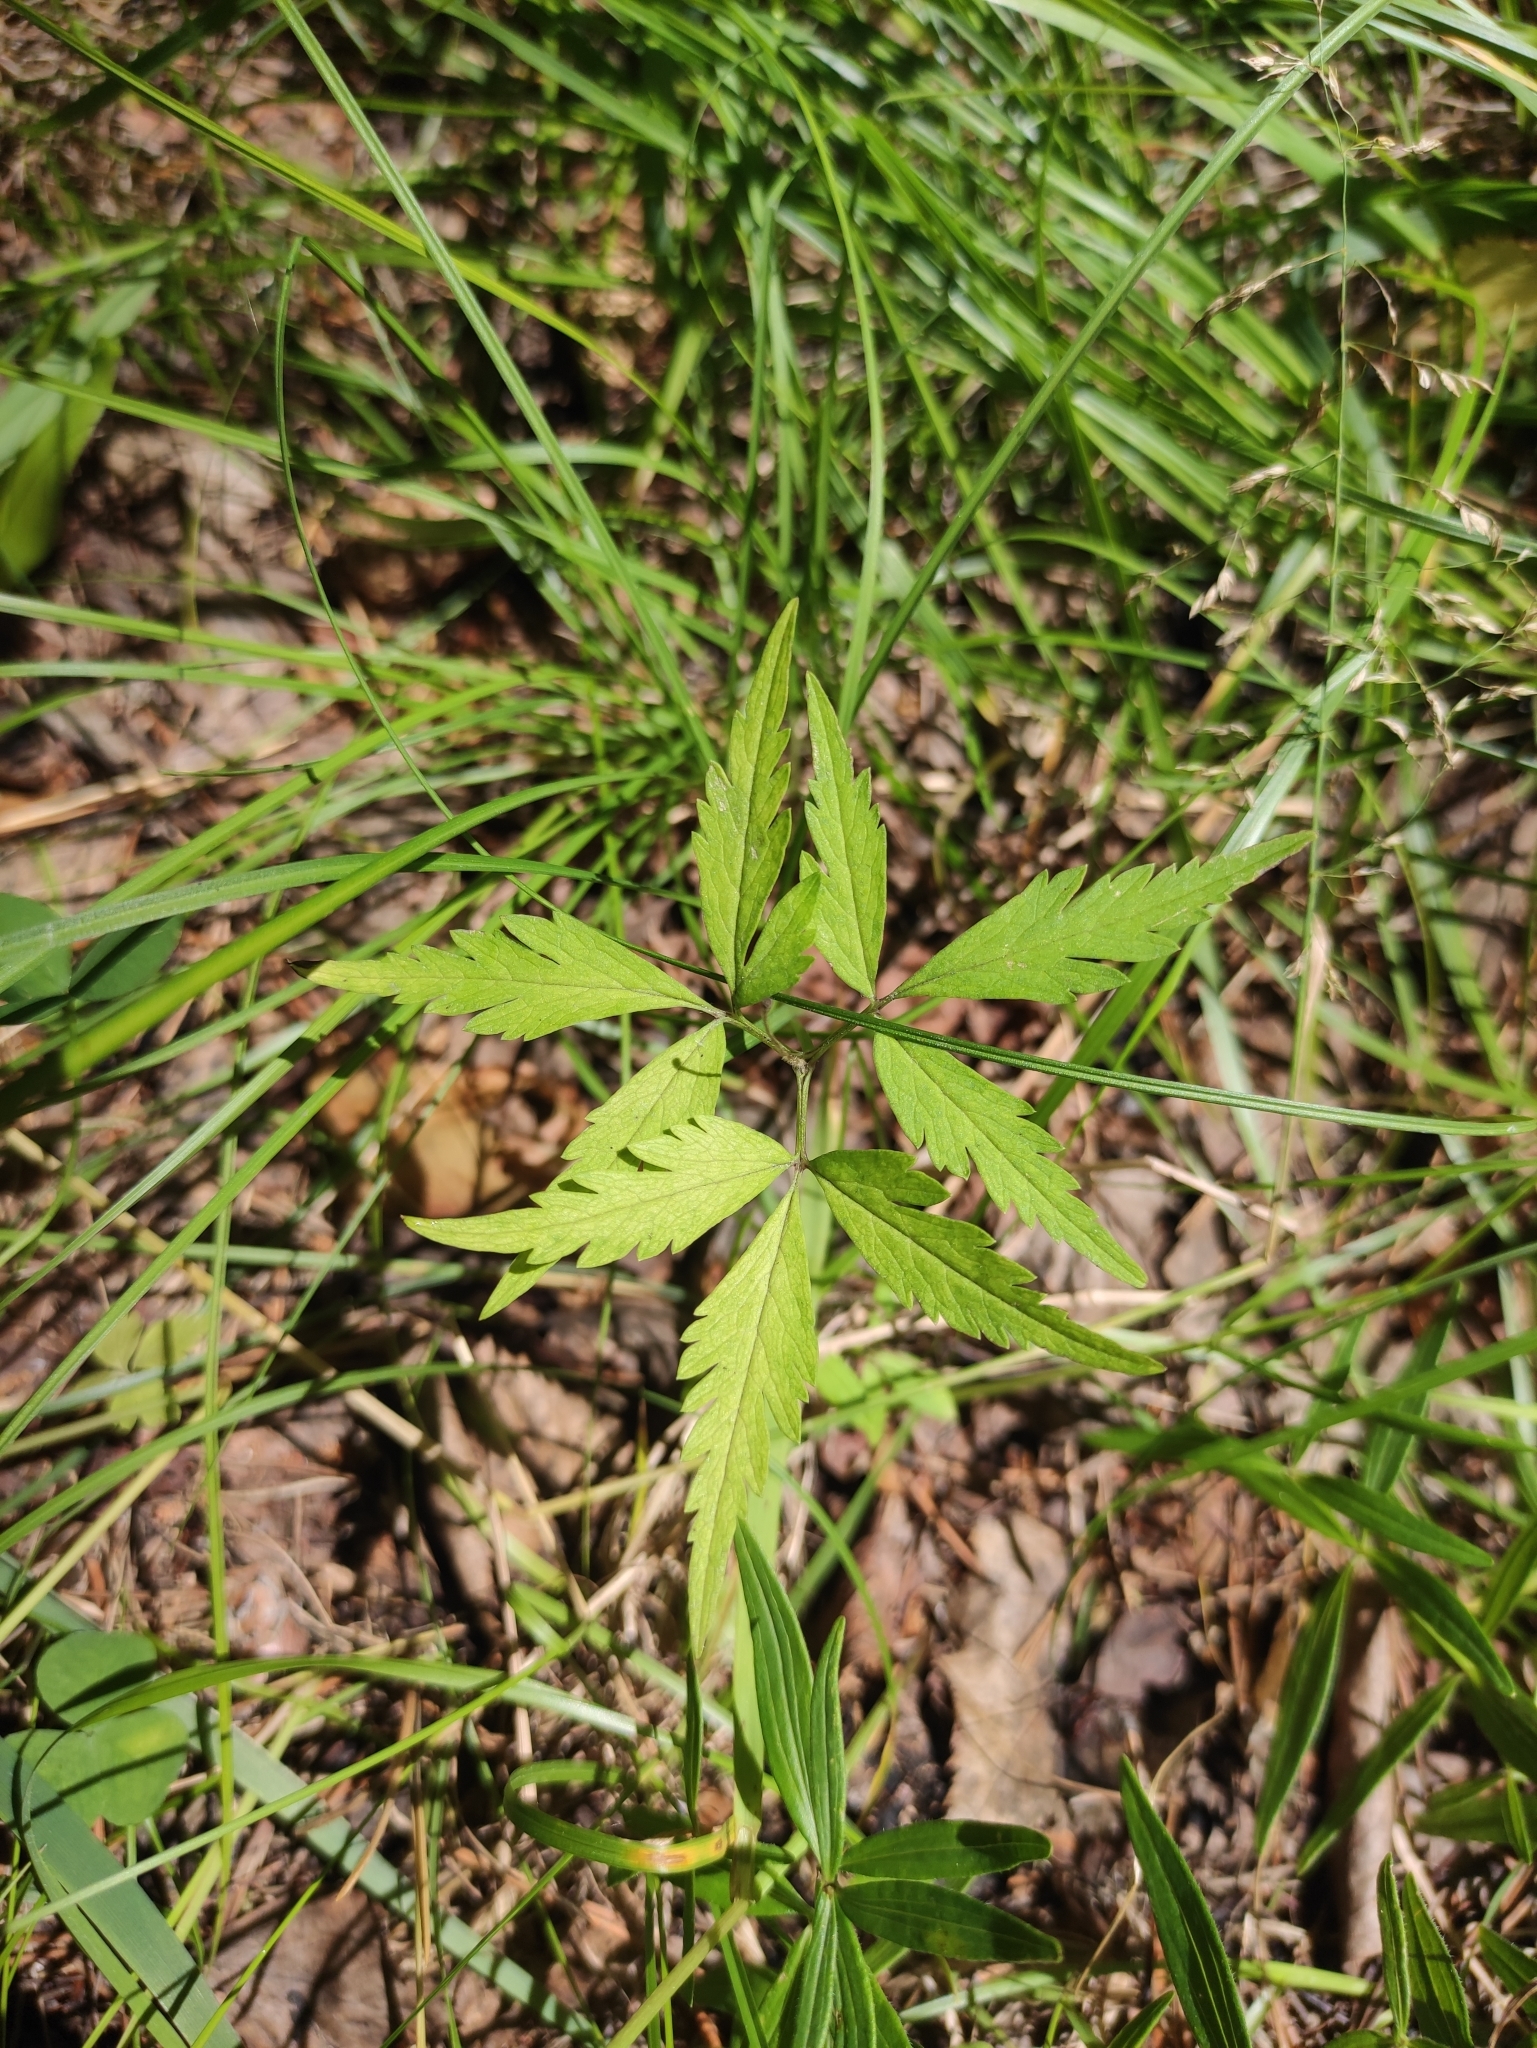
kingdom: Plantae
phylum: Tracheophyta
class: Magnoliopsida
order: Ranunculales
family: Ranunculaceae
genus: Anemone
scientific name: Anemone reflexa
